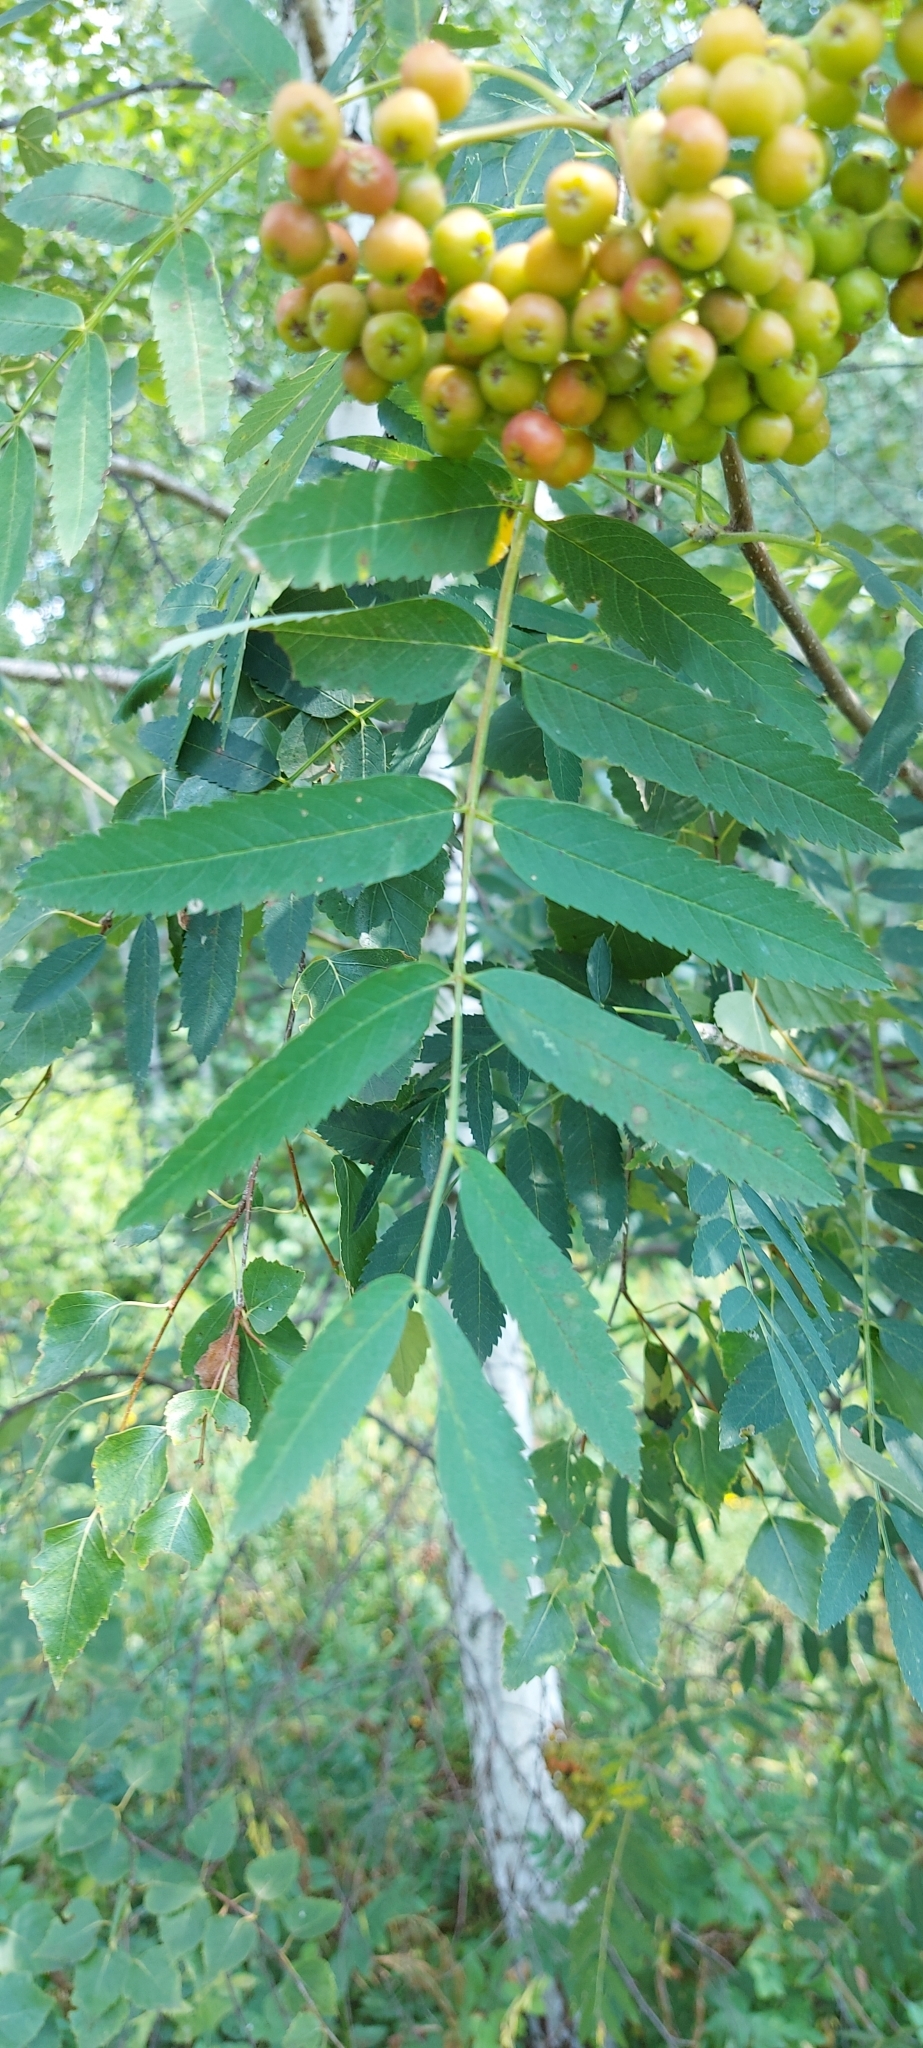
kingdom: Plantae
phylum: Tracheophyta
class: Magnoliopsida
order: Rosales
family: Rosaceae
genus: Sorbus
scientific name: Sorbus aucuparia
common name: Rowan
